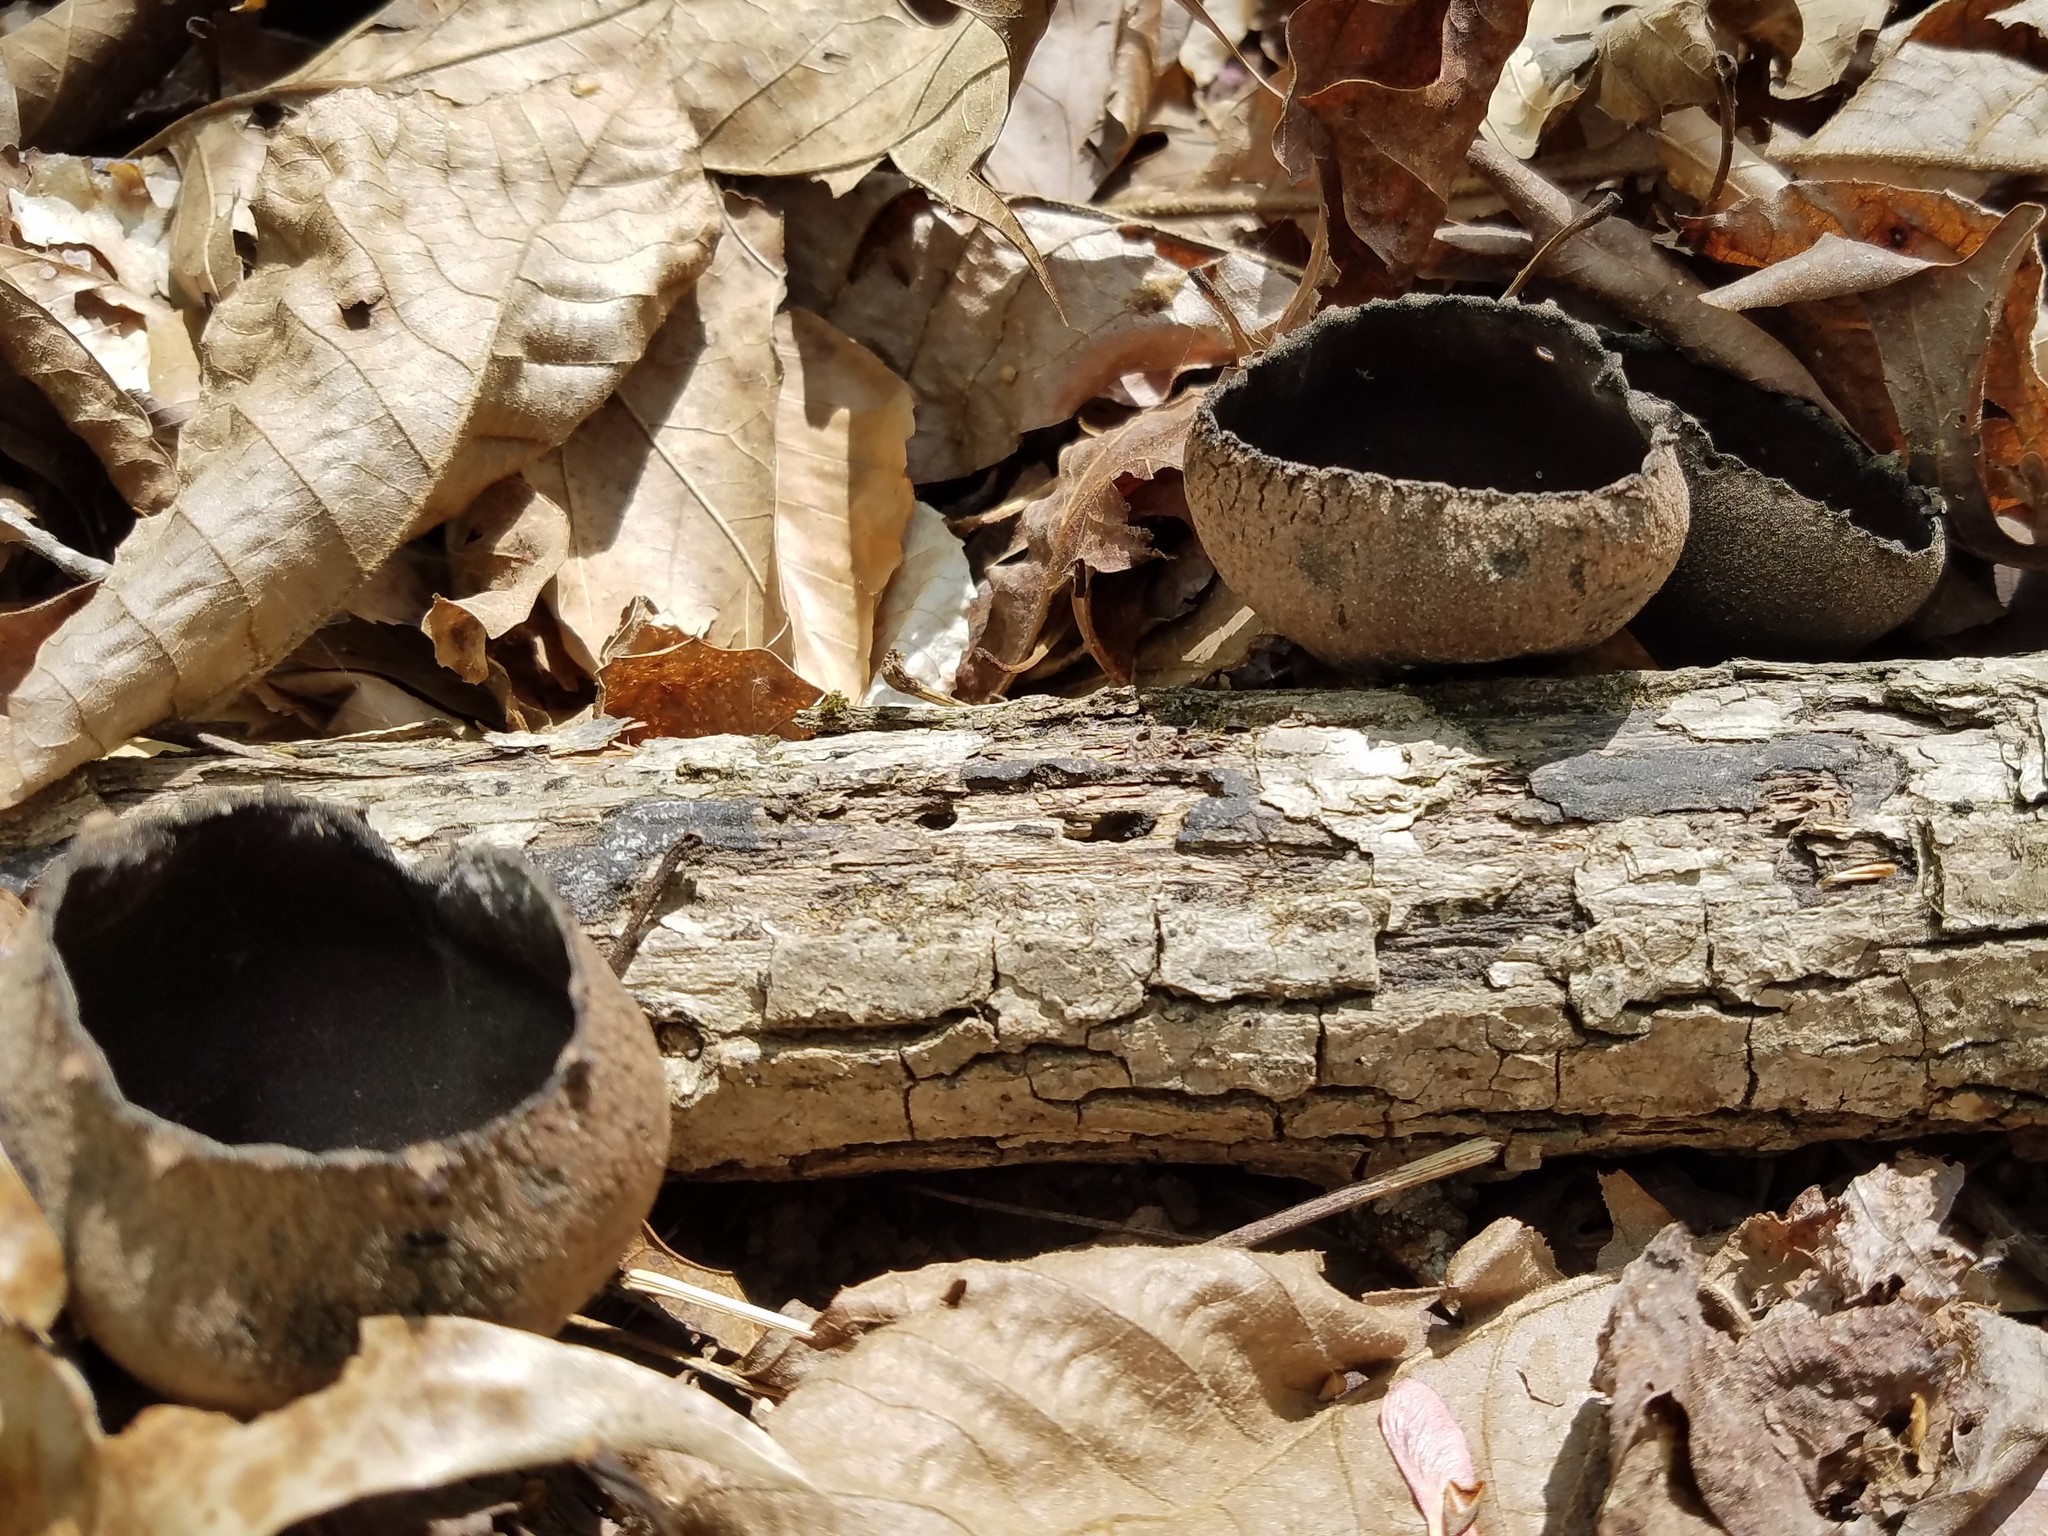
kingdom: Fungi
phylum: Ascomycota
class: Pezizomycetes
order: Pezizales
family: Sarcosomataceae
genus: Urnula
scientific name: Urnula craterium
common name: Devil's urn
